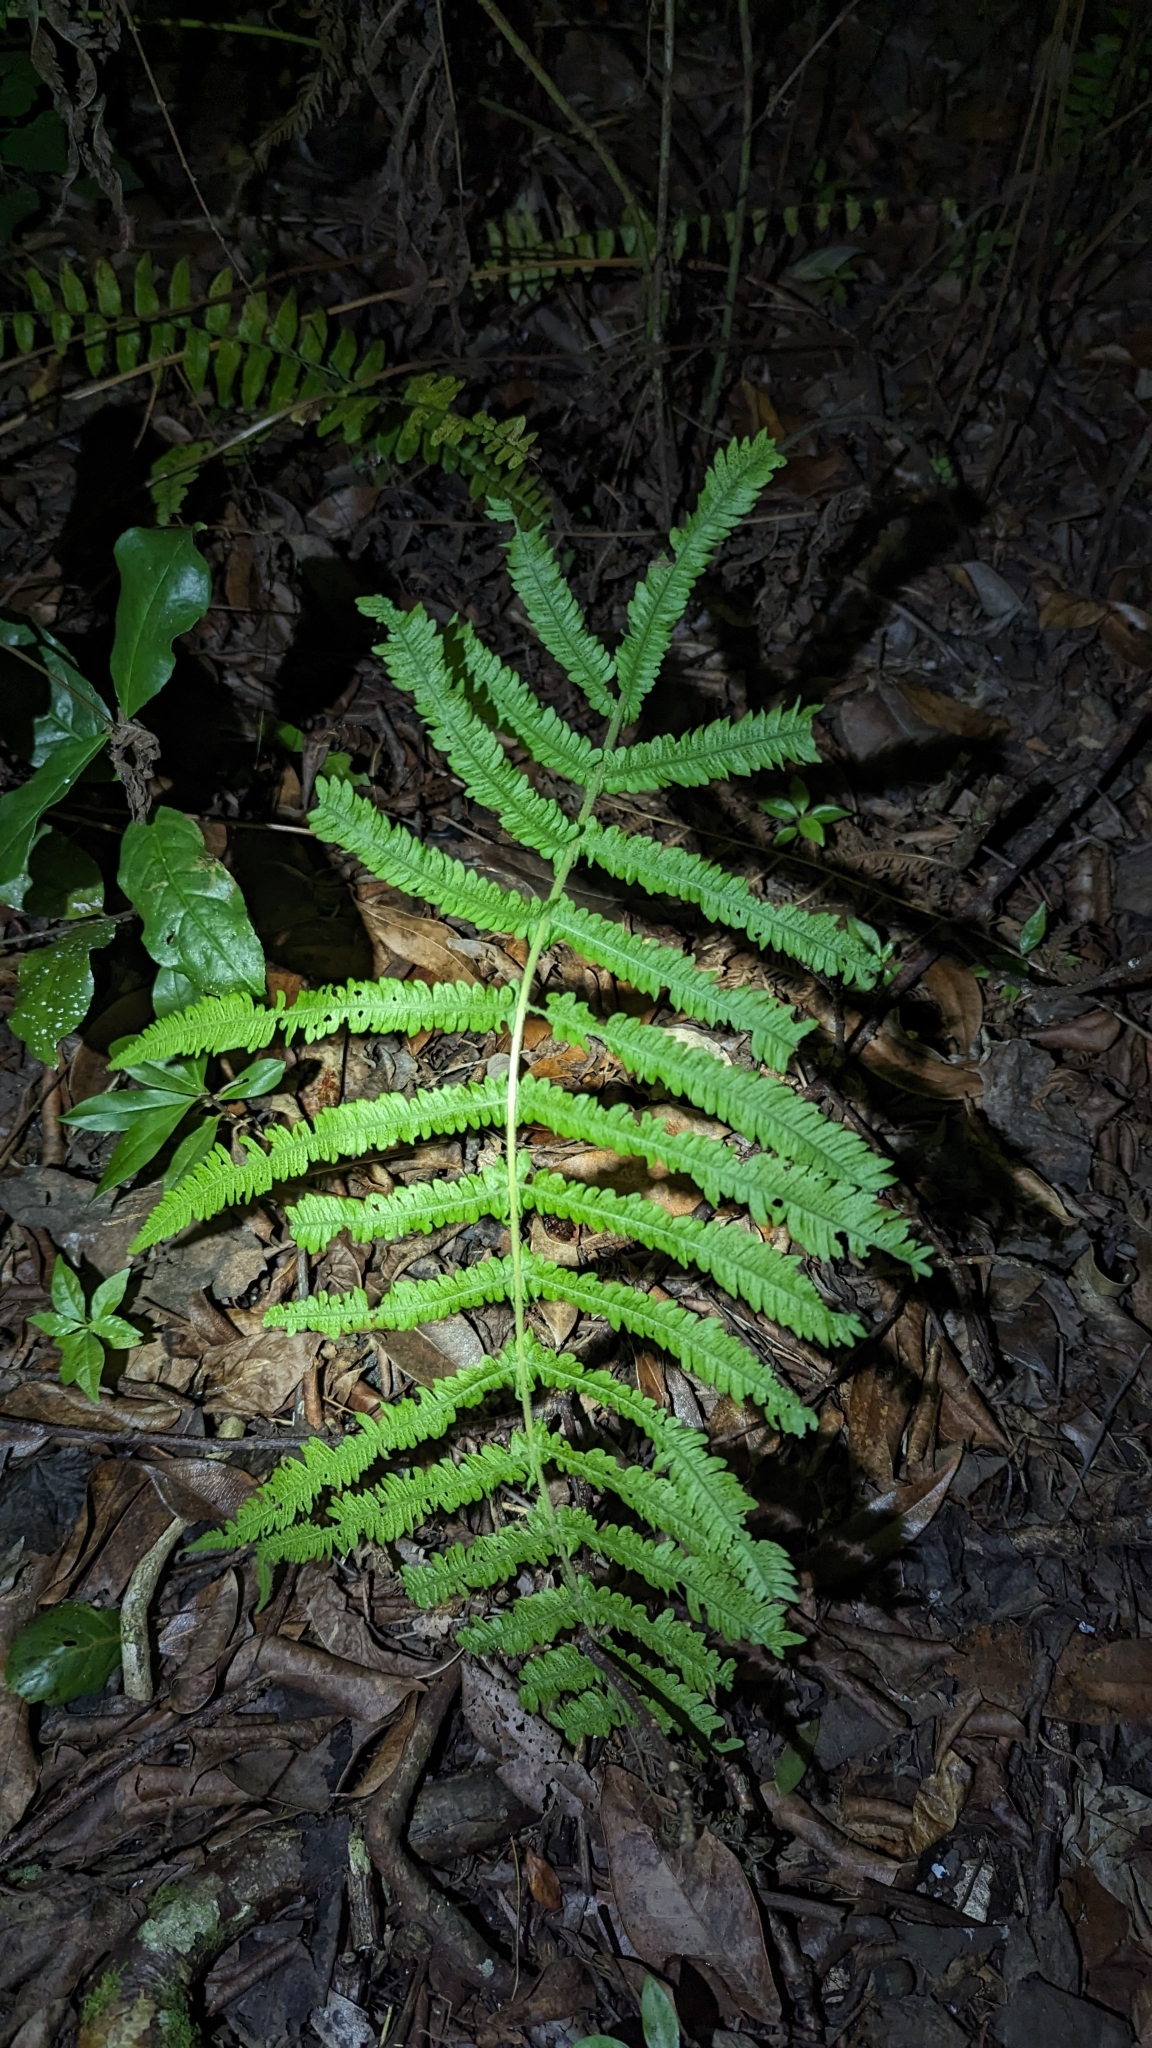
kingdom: Plantae
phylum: Tracheophyta
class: Polypodiopsida
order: Polypodiales
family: Thelypteridaceae
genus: Pelazoneuron
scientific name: Pelazoneuron ovatum
